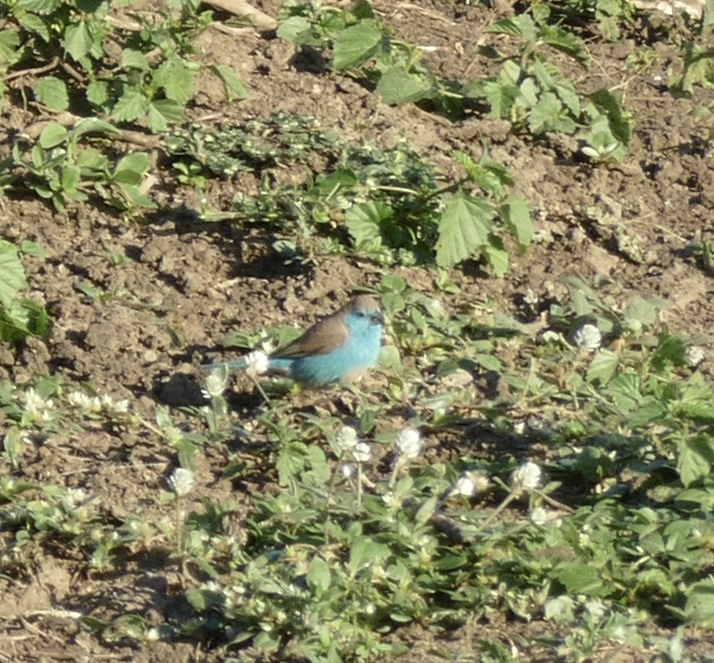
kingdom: Animalia
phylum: Chordata
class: Aves
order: Passeriformes
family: Estrildidae
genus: Uraeginthus
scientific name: Uraeginthus angolensis
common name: Blue waxbill
